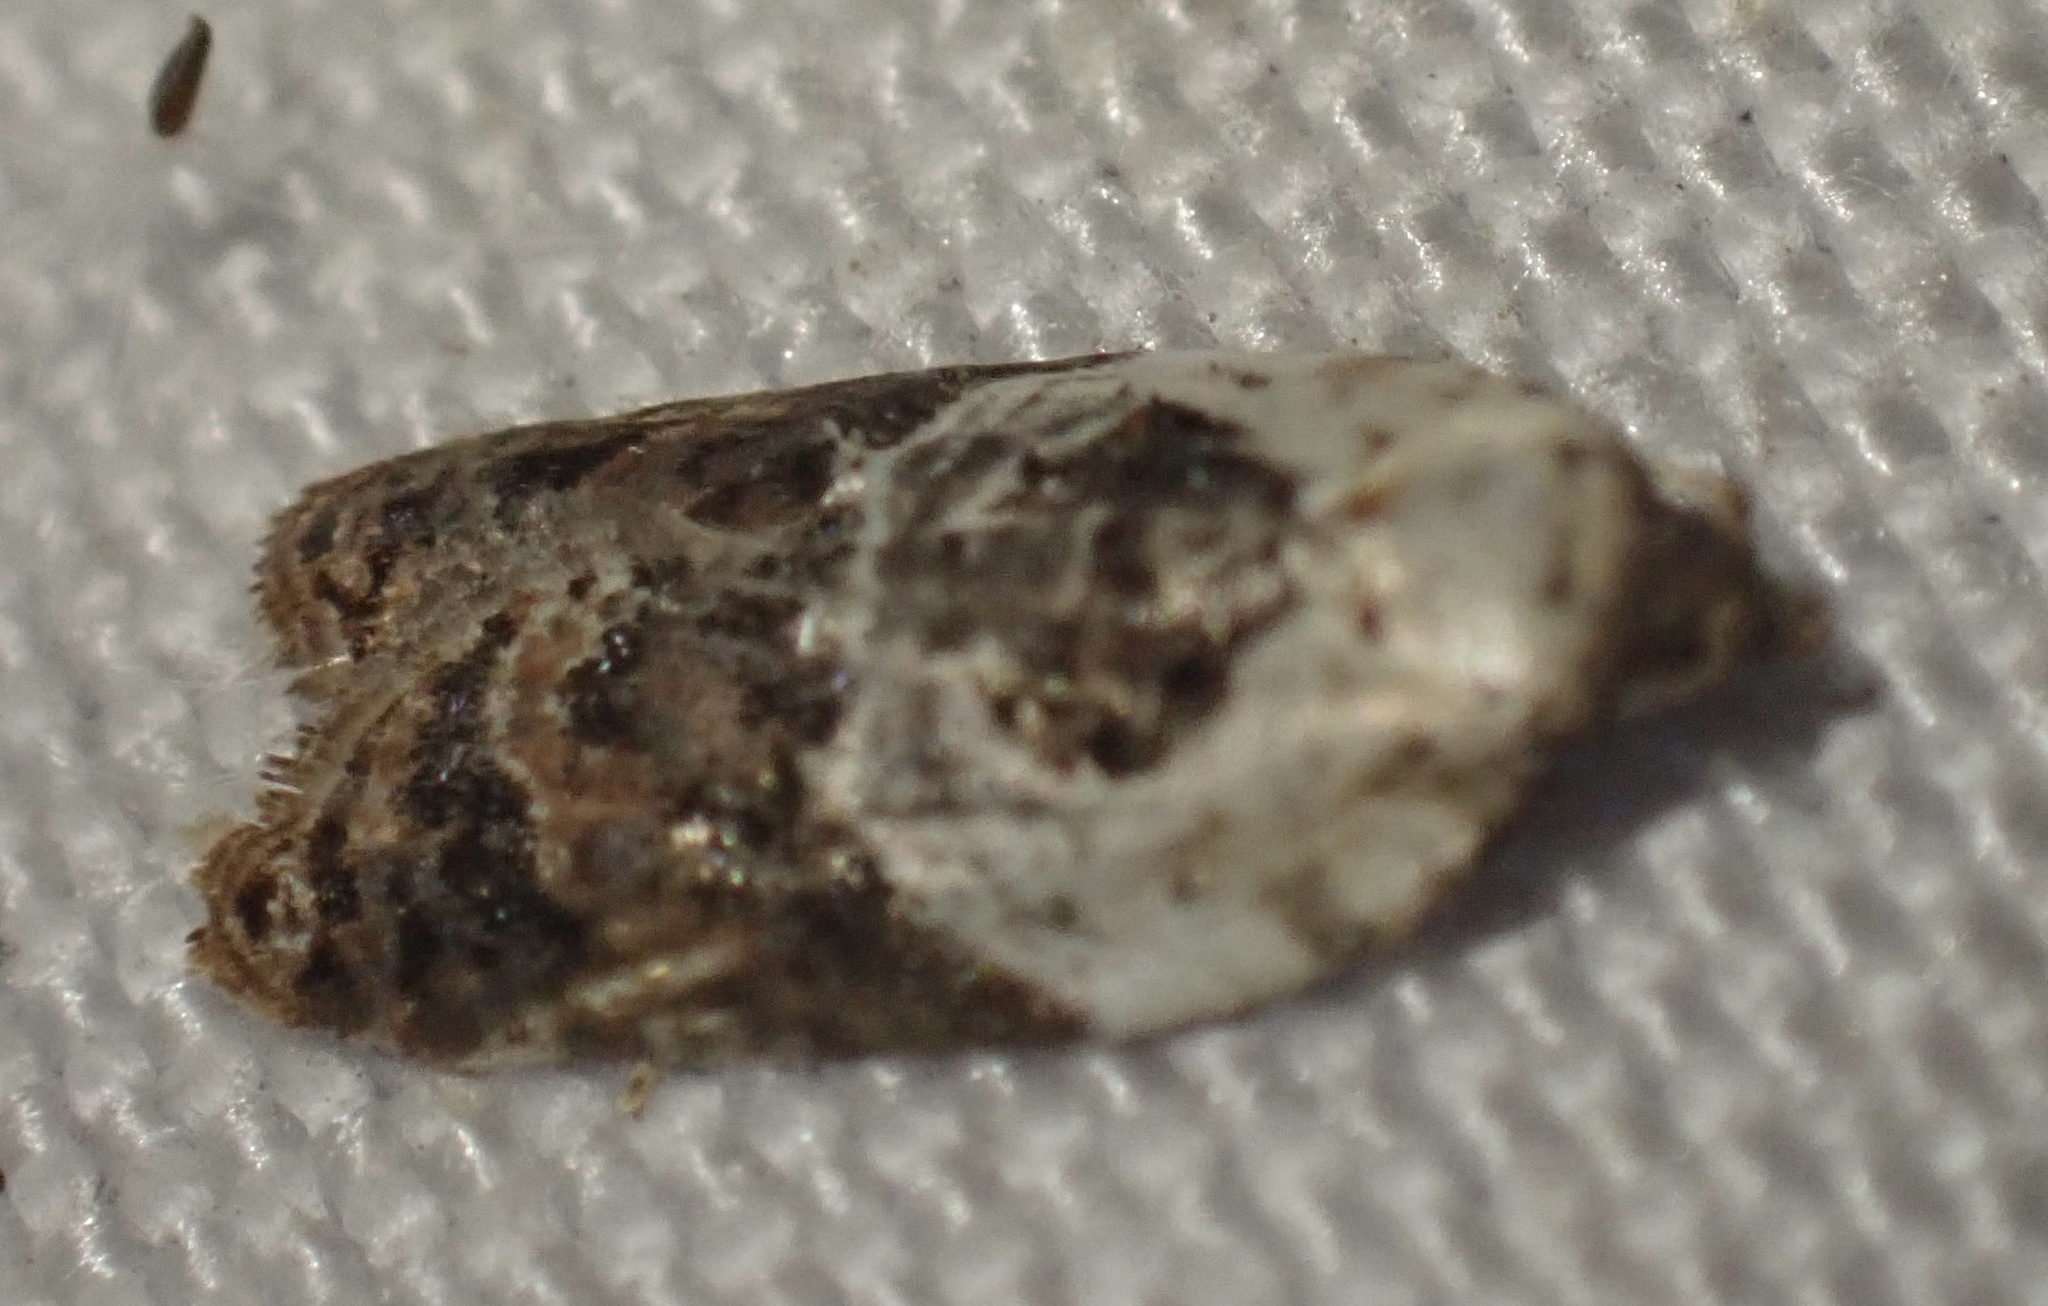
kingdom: Animalia
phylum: Arthropoda
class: Insecta
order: Lepidoptera
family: Tortricidae
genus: Acleris
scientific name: Acleris variegana
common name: Garden rose tortrix
